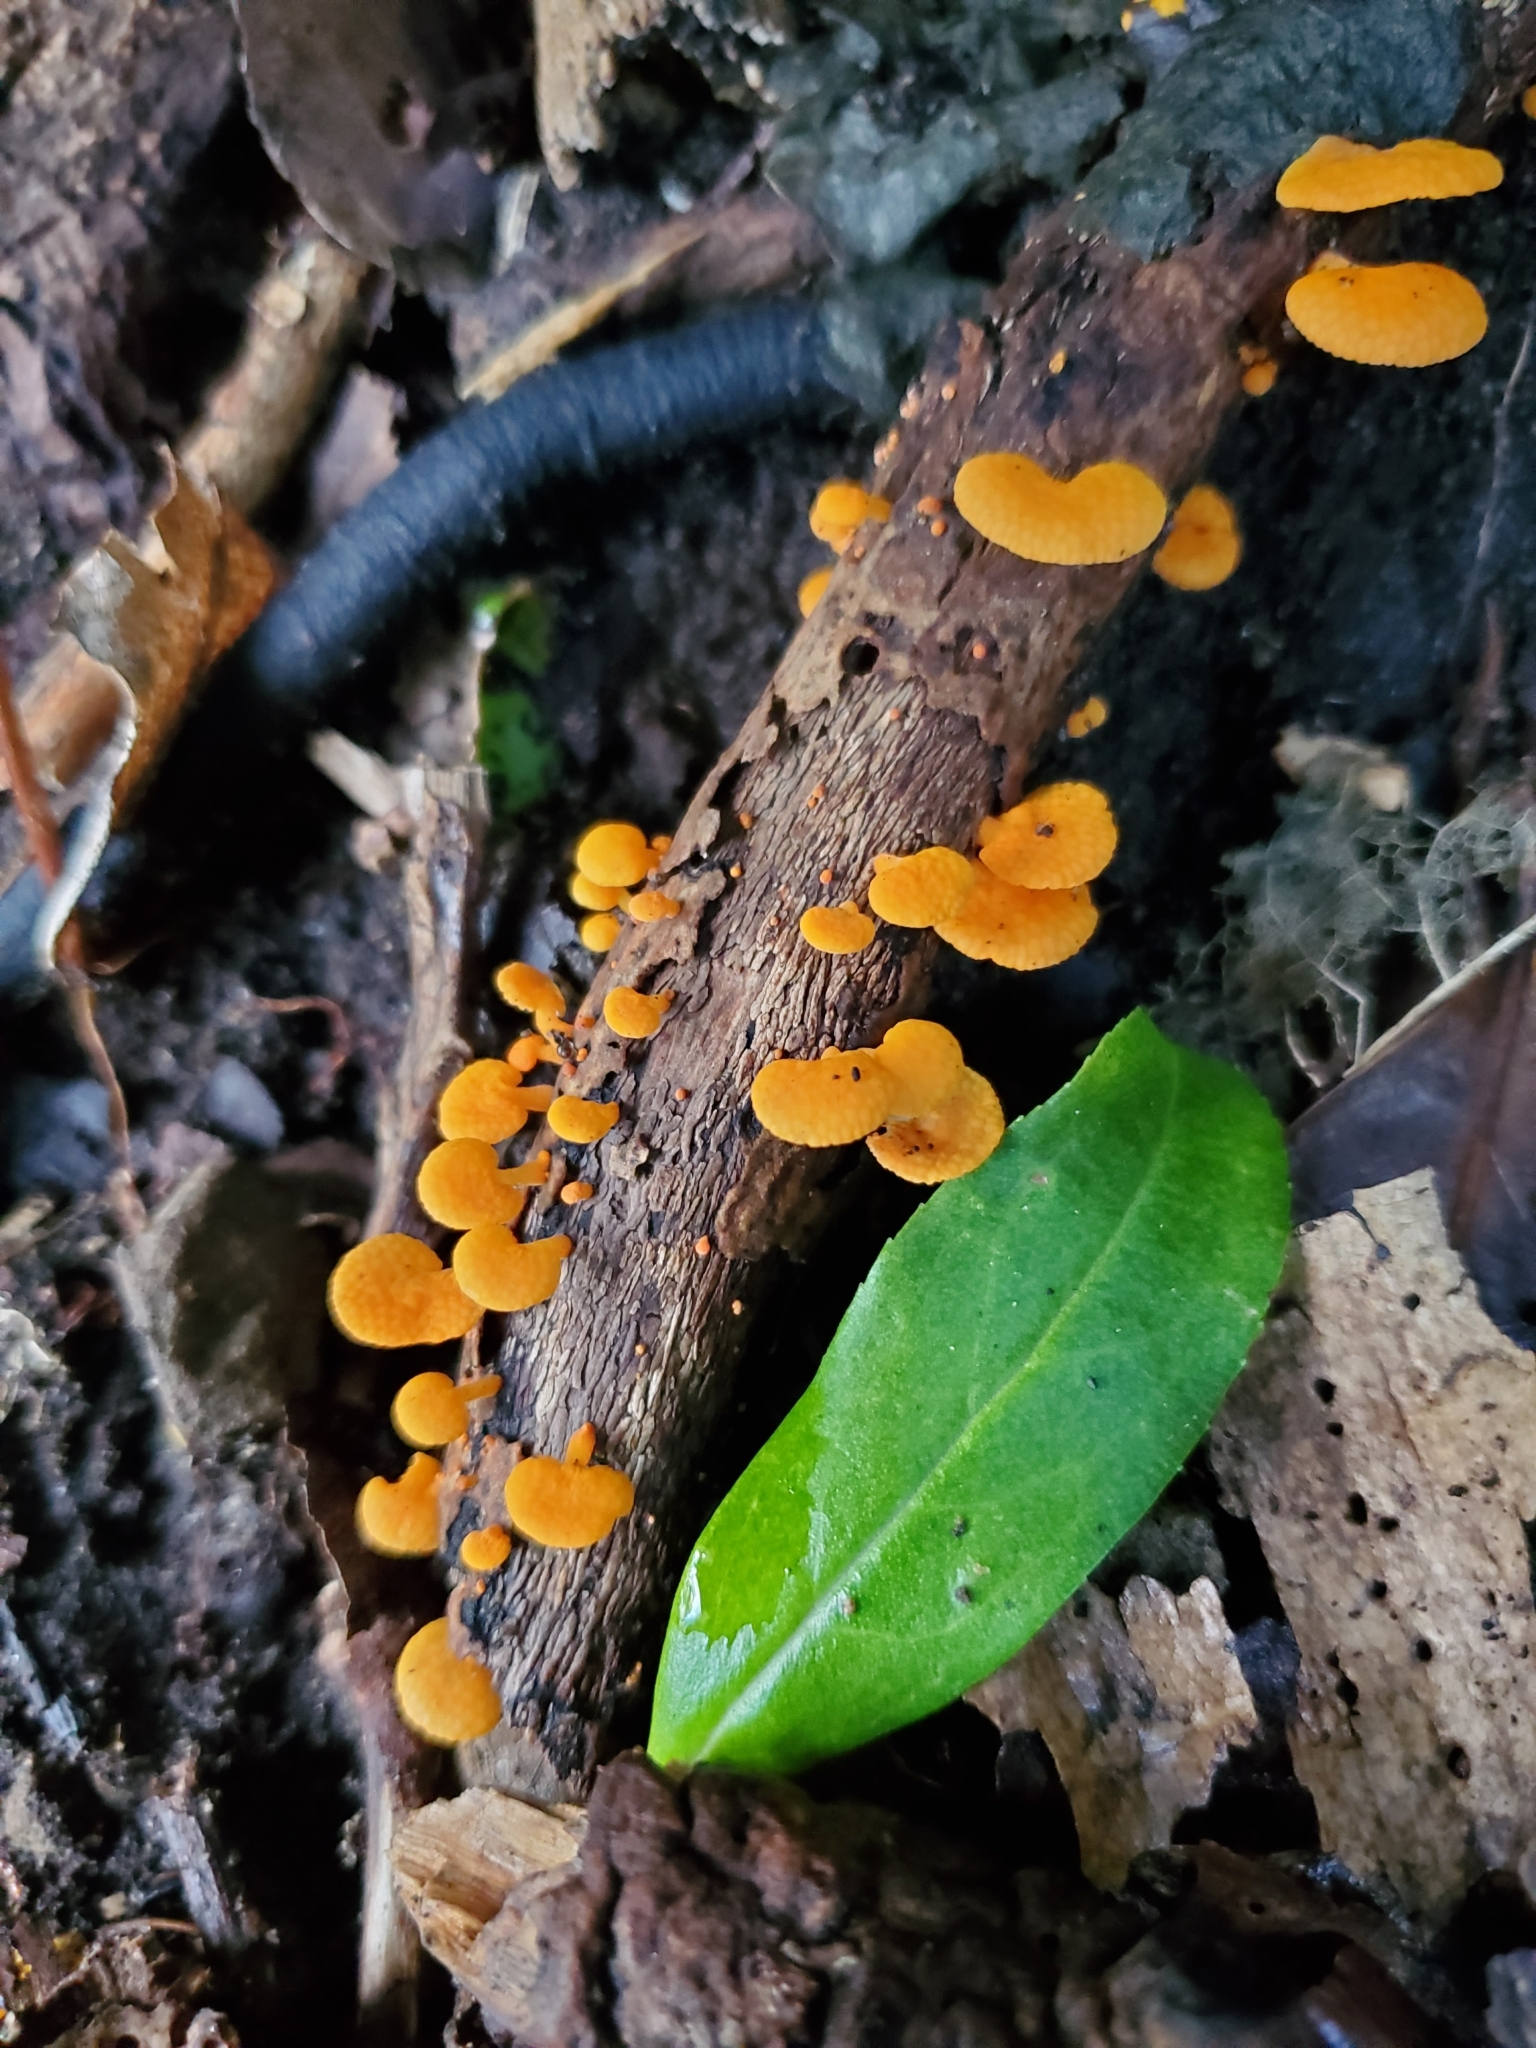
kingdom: Fungi
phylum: Basidiomycota
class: Agaricomycetes
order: Agaricales
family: Mycenaceae
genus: Favolaschia
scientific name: Favolaschia claudopus
